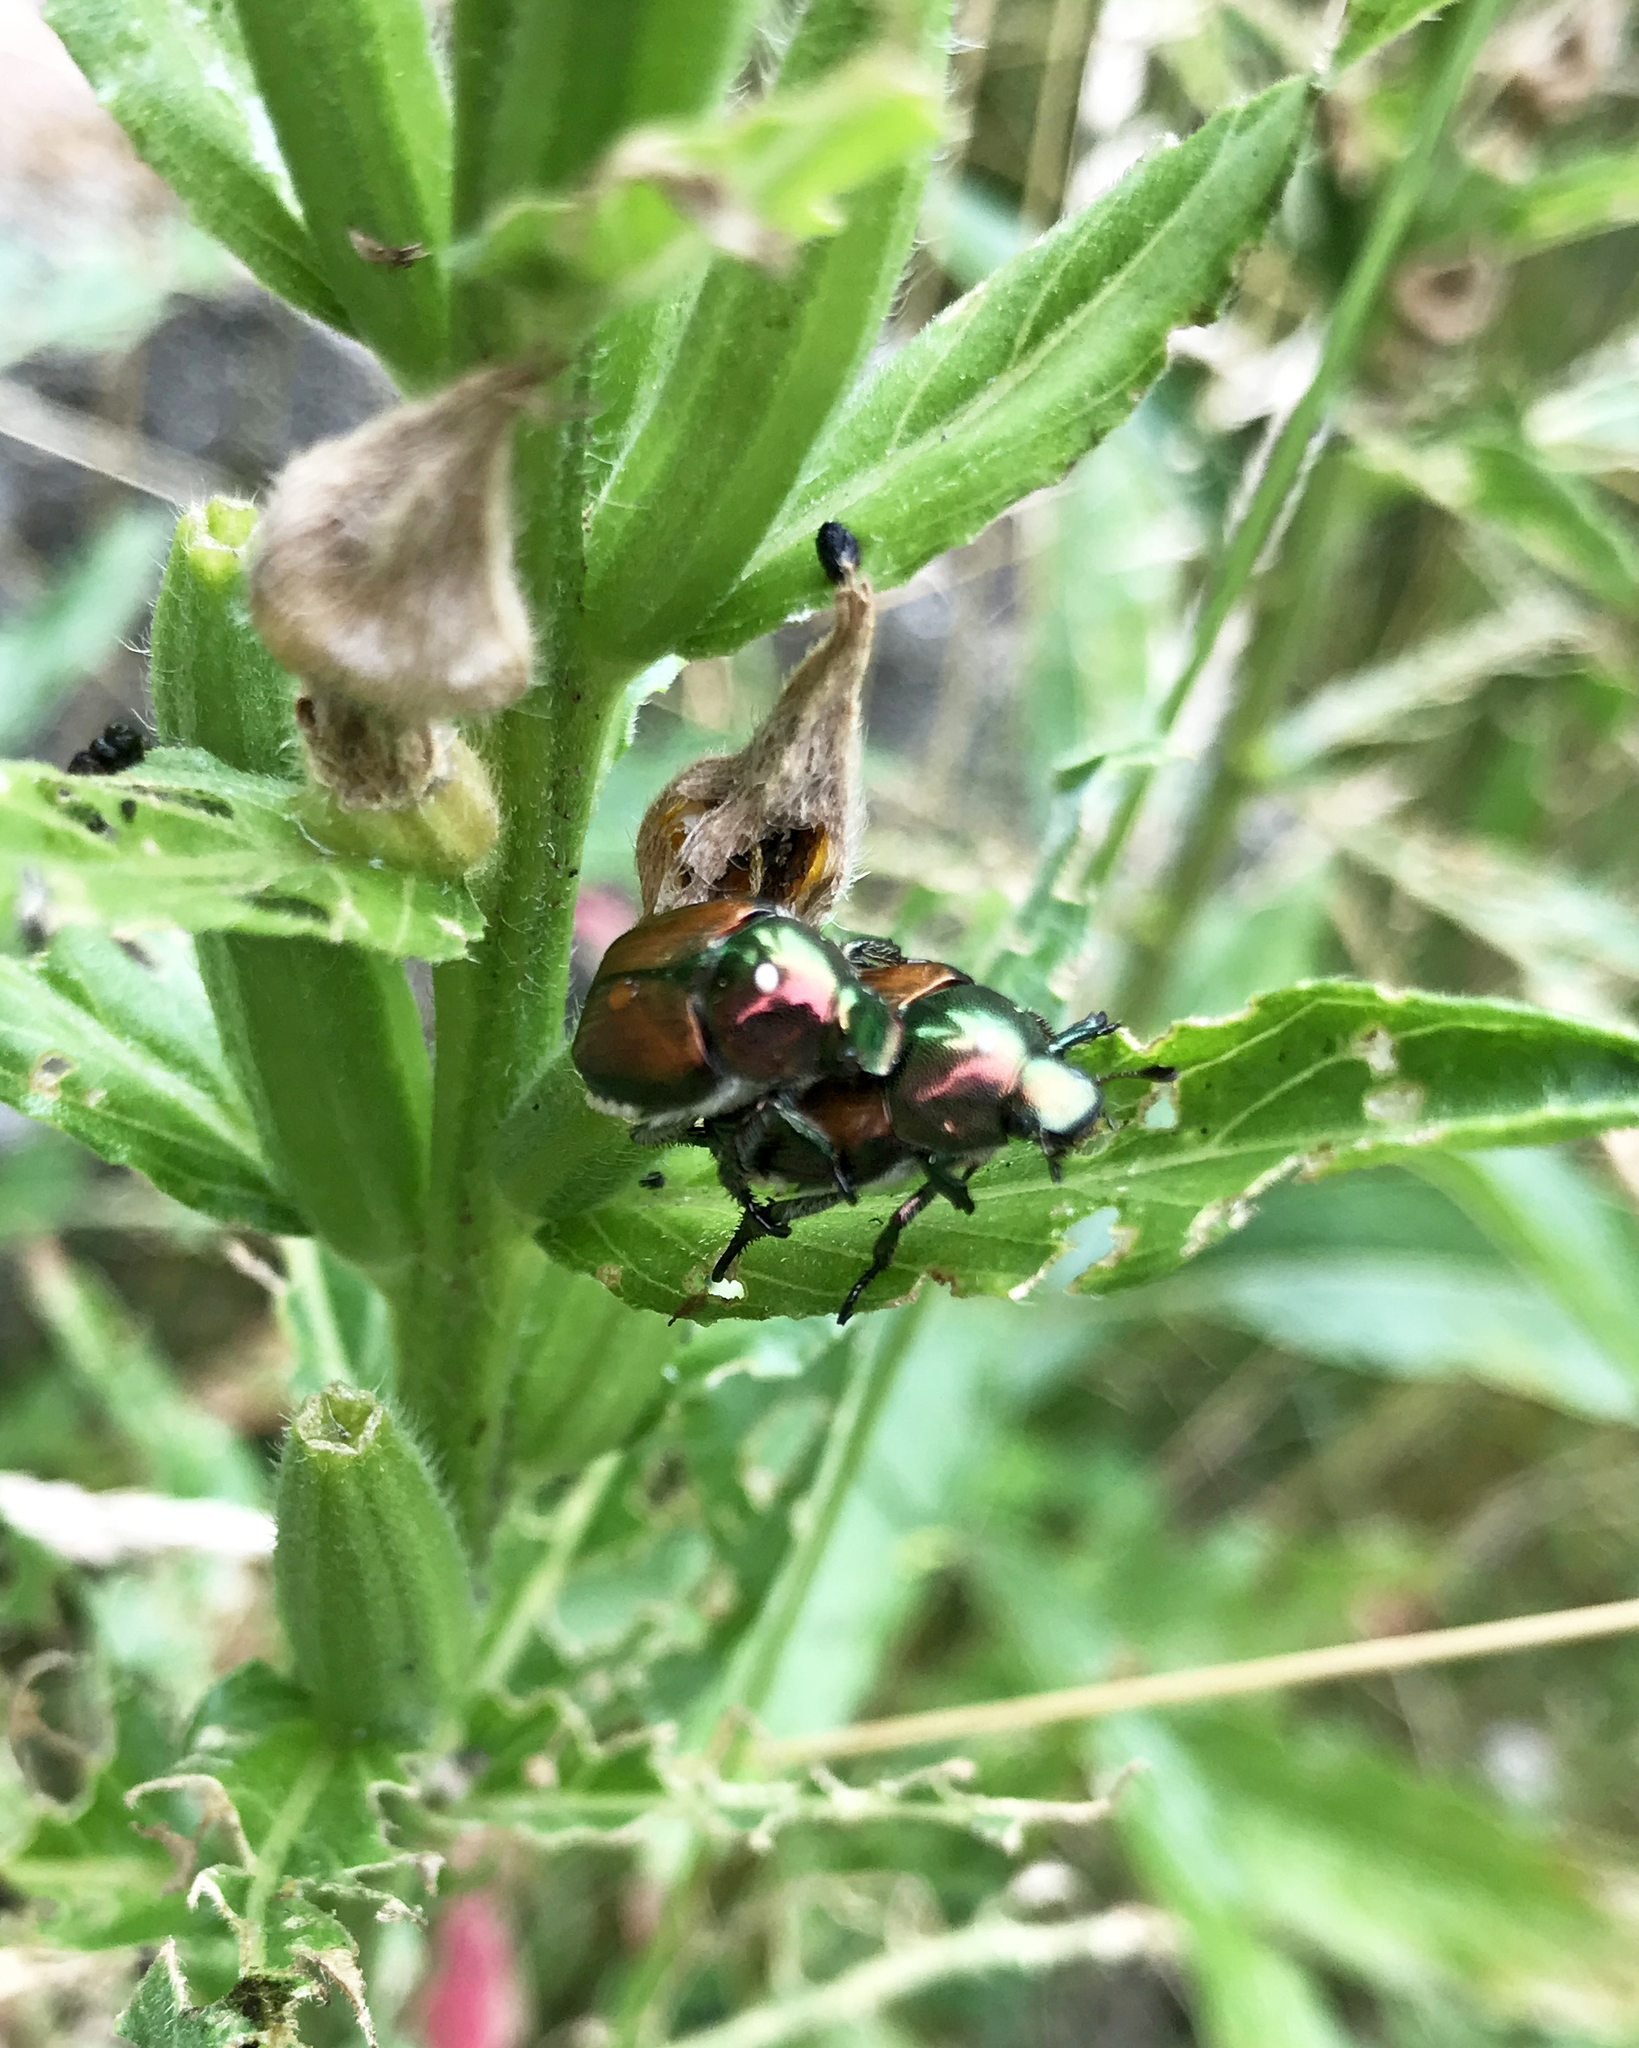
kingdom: Animalia
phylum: Arthropoda
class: Insecta
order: Coleoptera
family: Scarabaeidae
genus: Popillia
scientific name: Popillia japonica
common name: Japanese beetle
